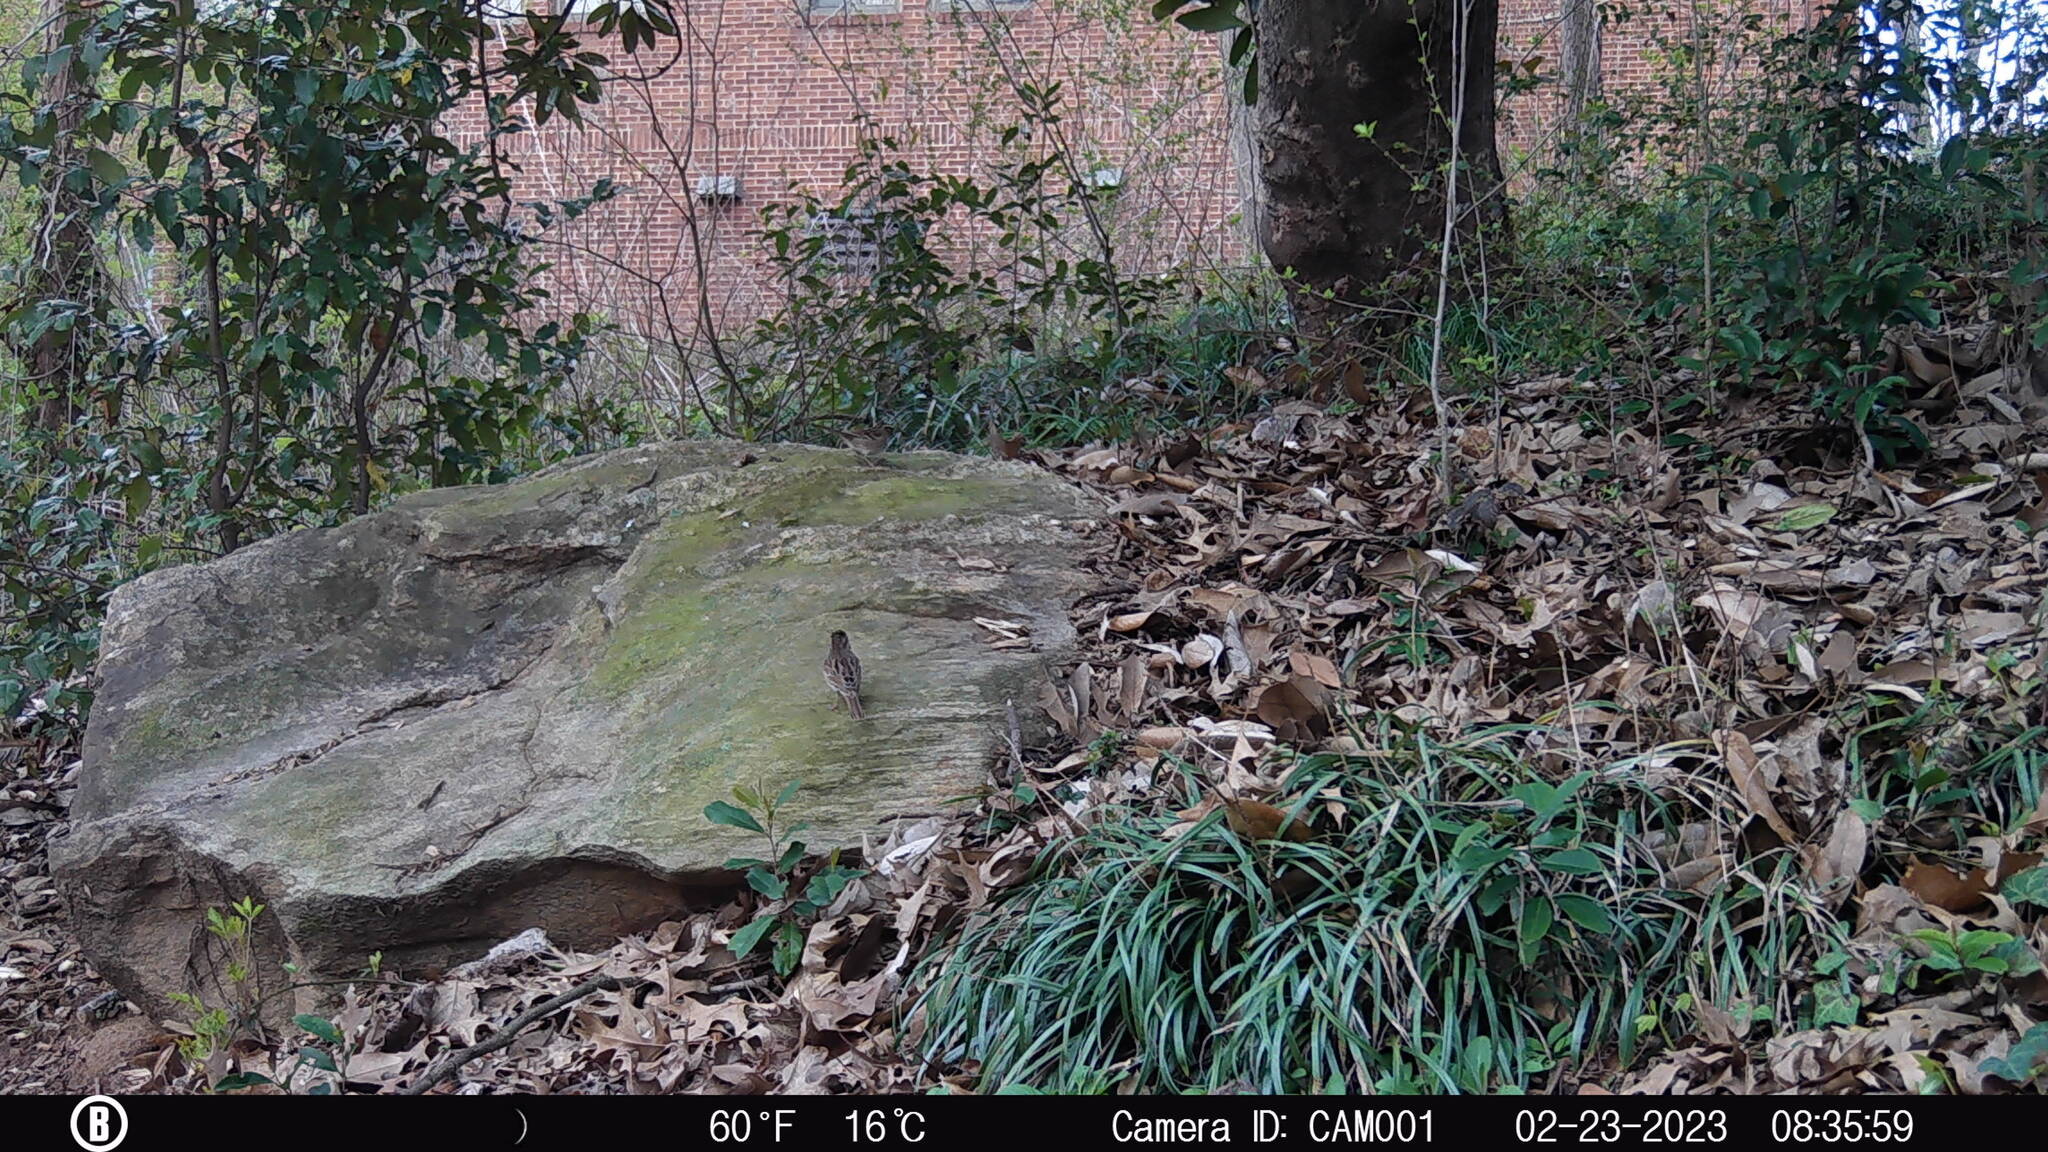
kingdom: Animalia
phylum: Chordata
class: Aves
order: Passeriformes
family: Passerellidae
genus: Melospiza
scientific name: Melospiza melodia
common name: Song sparrow
